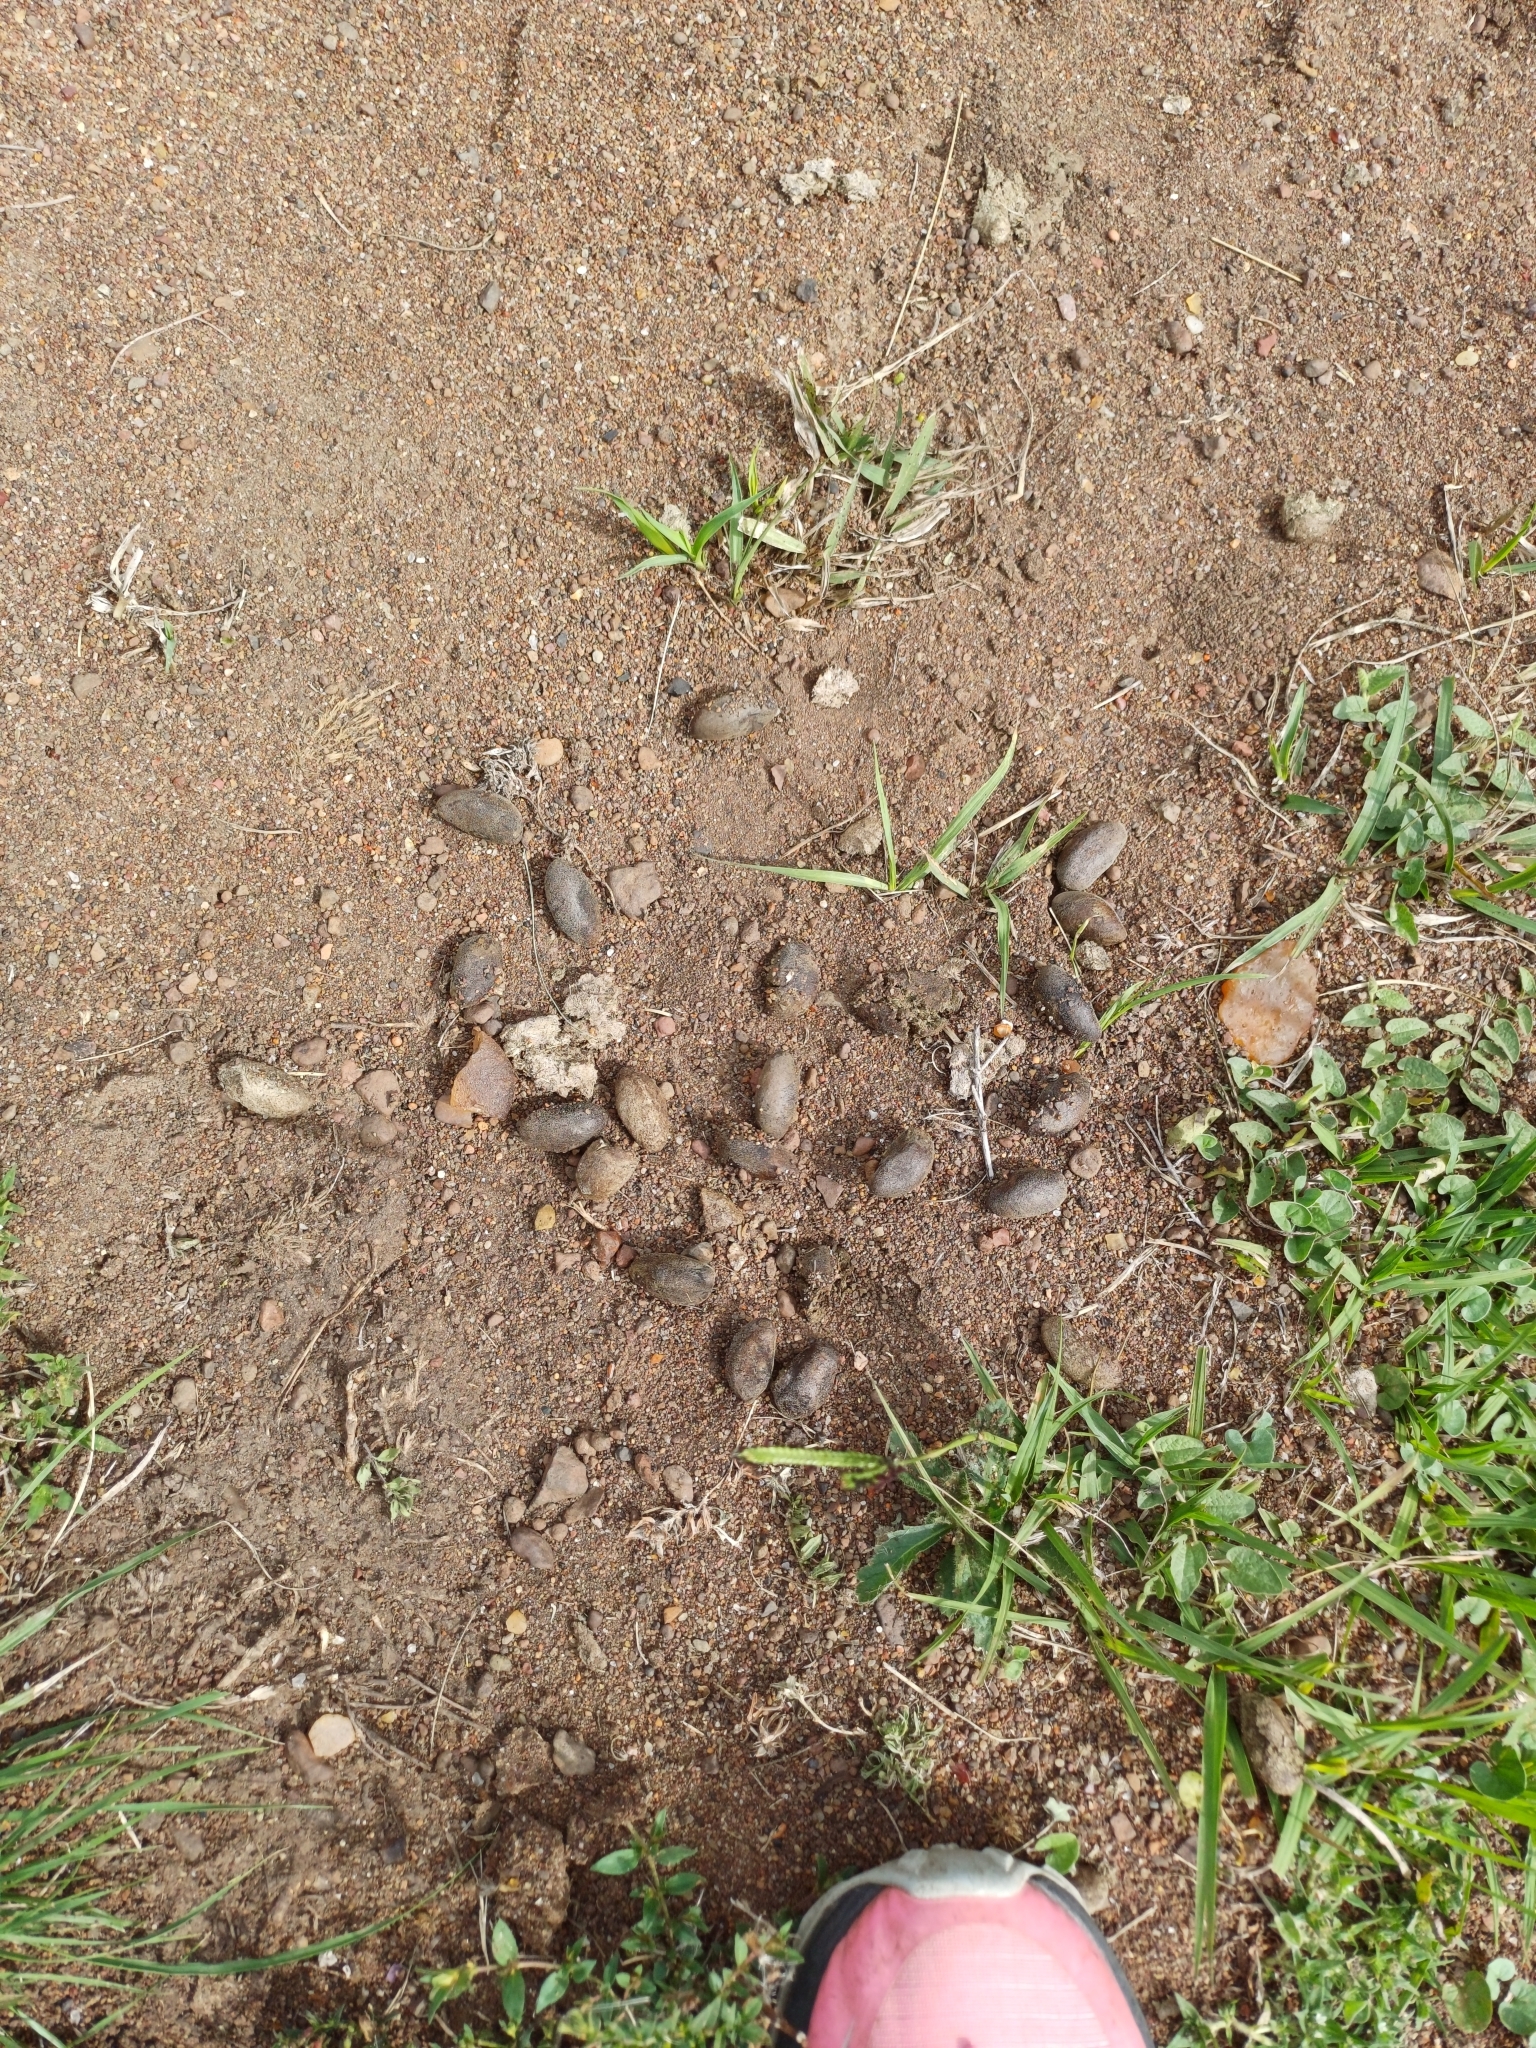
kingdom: Animalia
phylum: Chordata
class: Mammalia
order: Rodentia
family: Caviidae
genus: Hydrochoerus
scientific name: Hydrochoerus hydrochaeris
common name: Capybara
